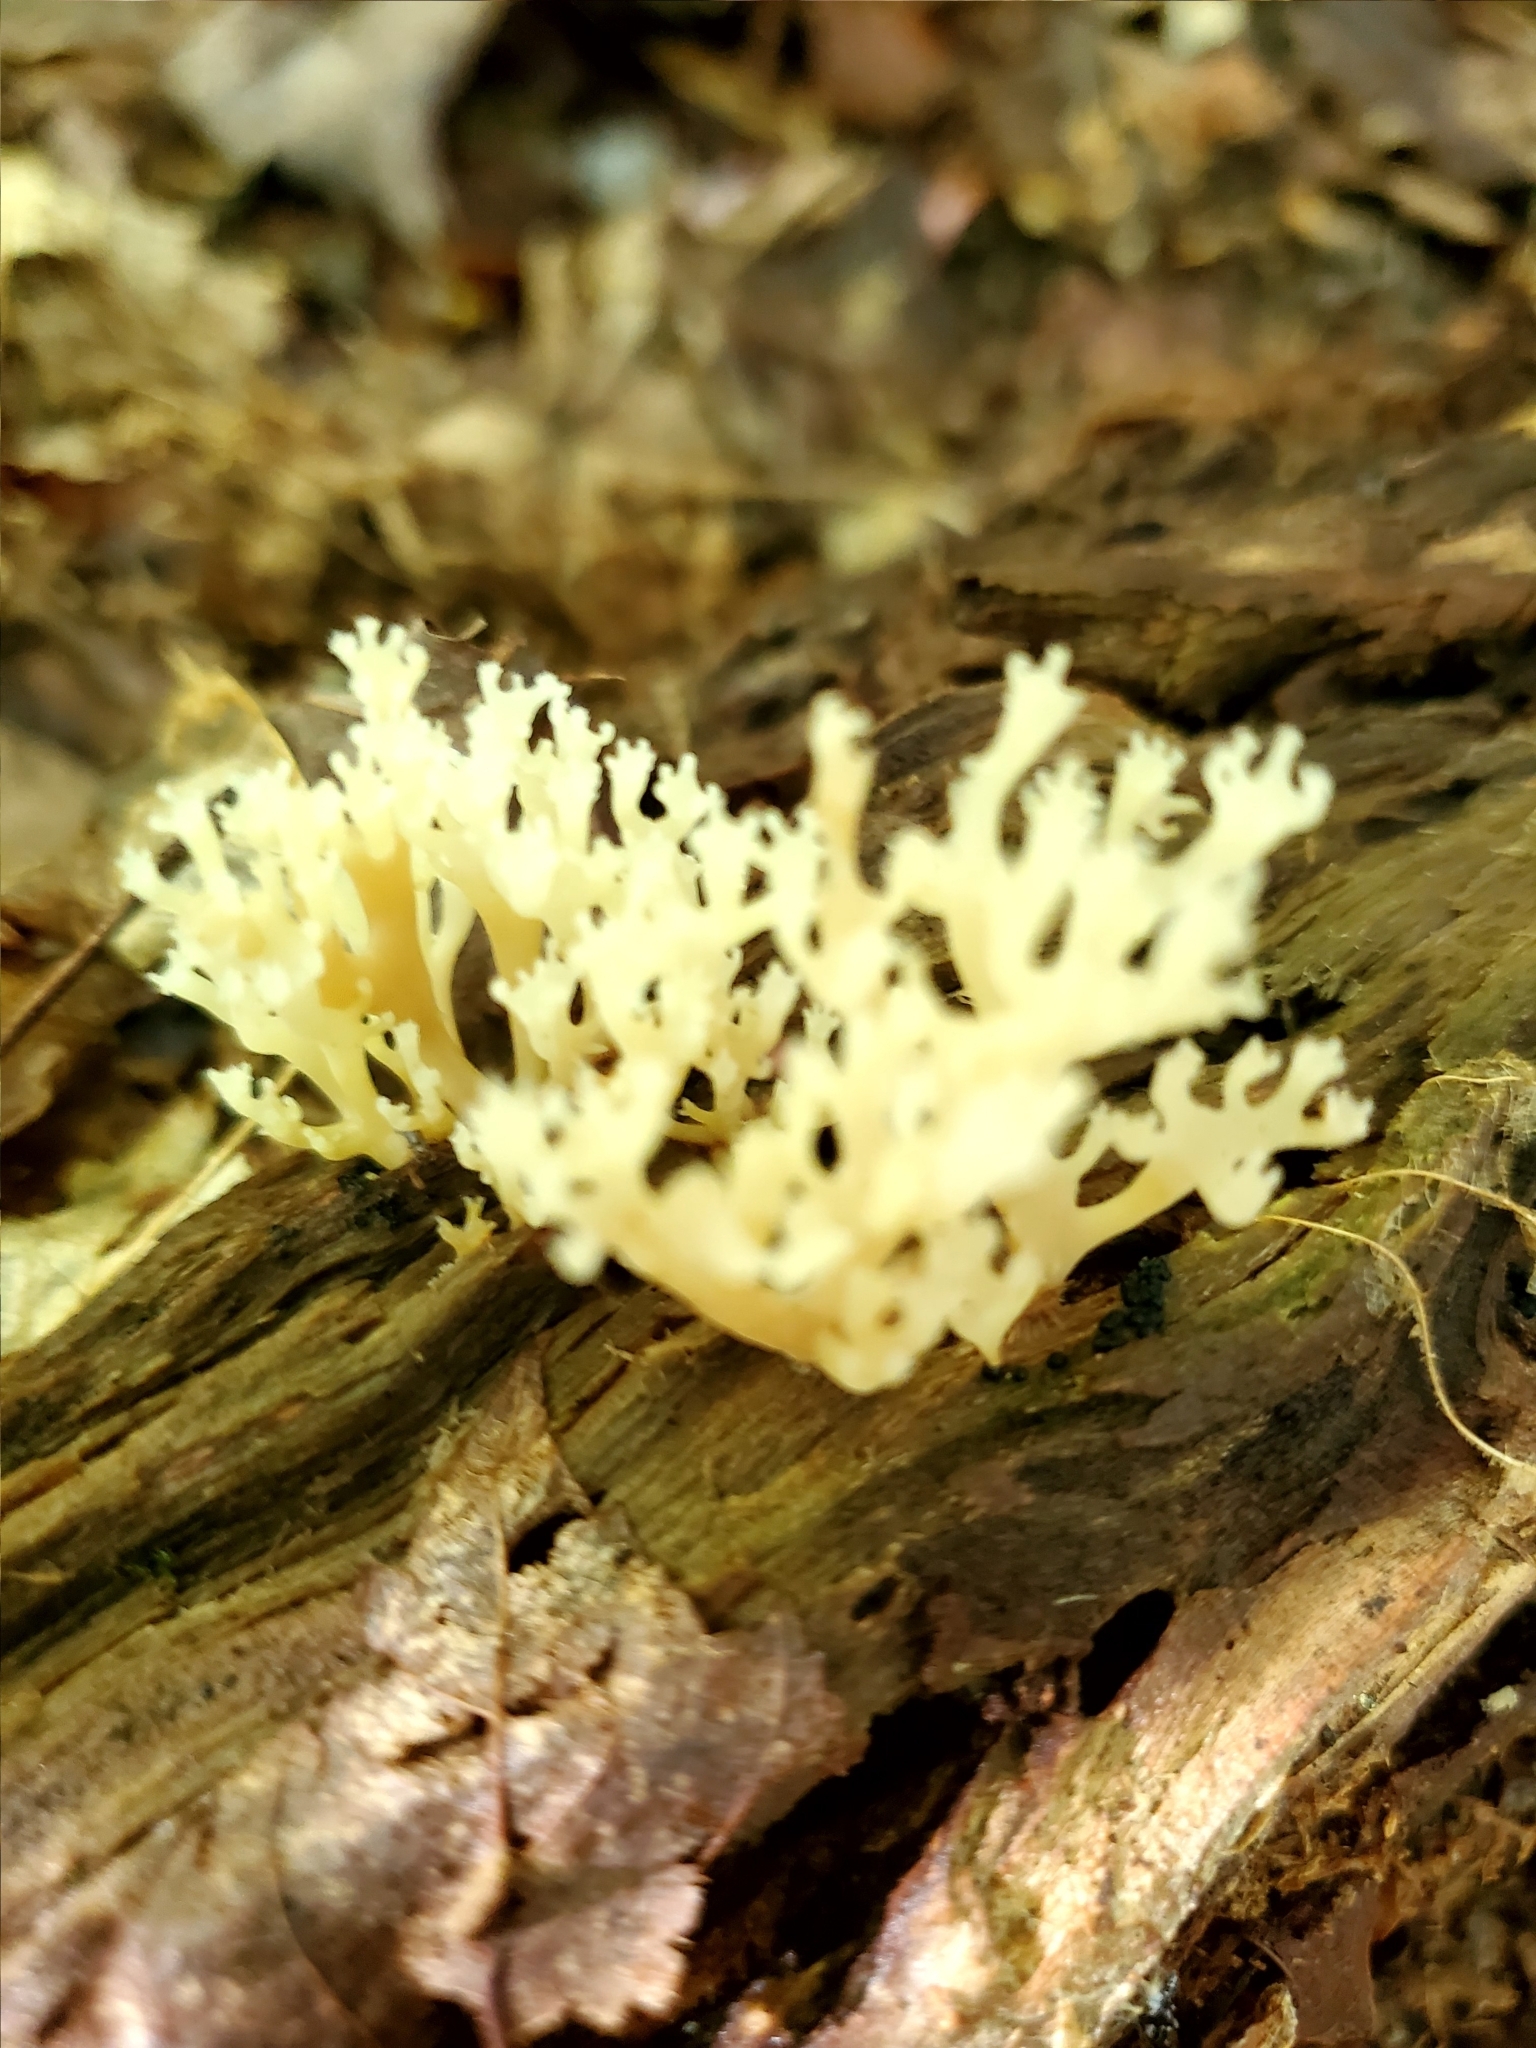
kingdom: Fungi
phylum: Basidiomycota
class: Agaricomycetes
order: Russulales
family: Auriscalpiaceae
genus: Artomyces
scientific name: Artomyces pyxidatus
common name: Crown-tipped coral fungus
